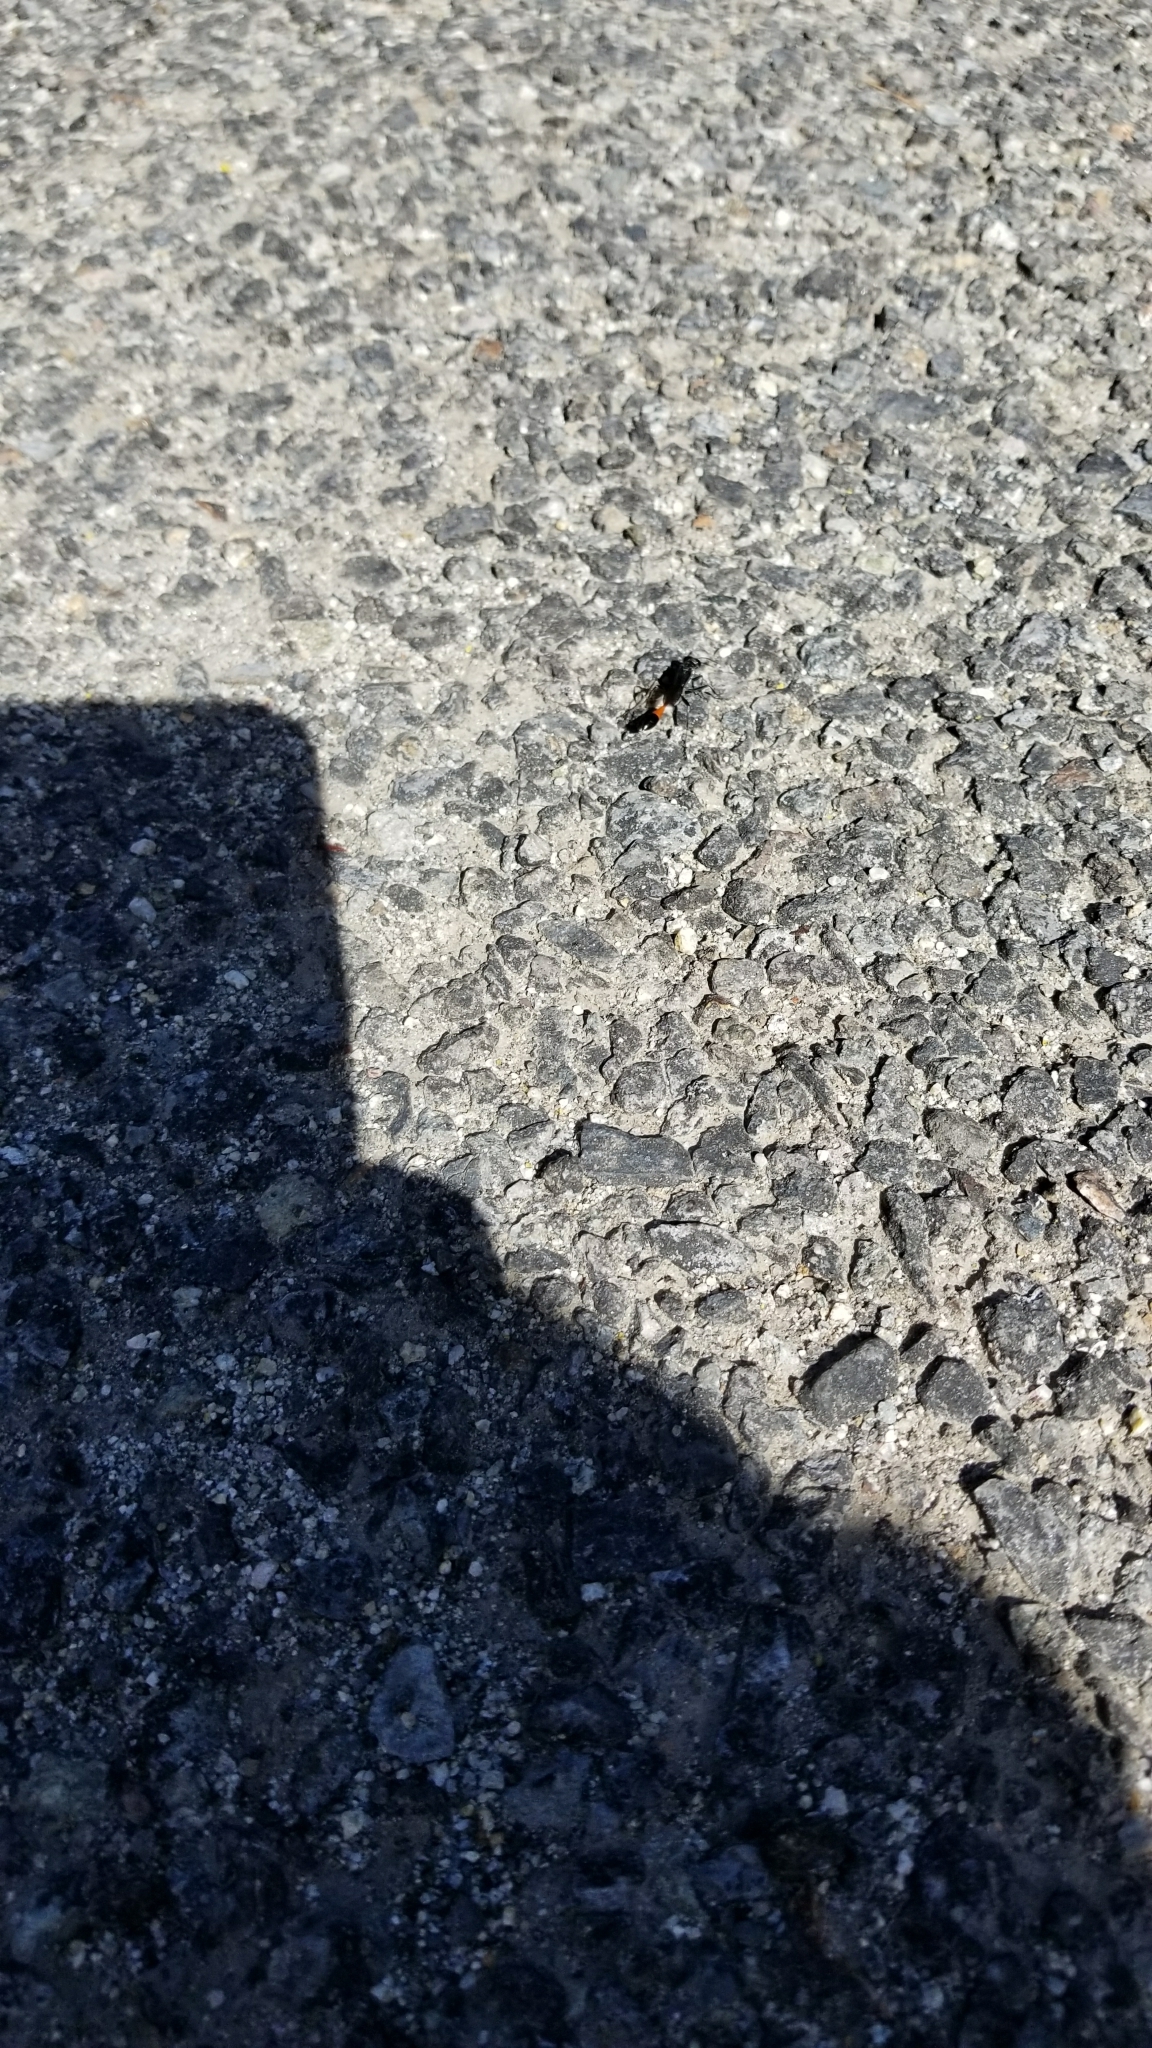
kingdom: Animalia
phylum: Arthropoda
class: Insecta
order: Hymenoptera
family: Sphecidae
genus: Ammophila
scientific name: Ammophila
